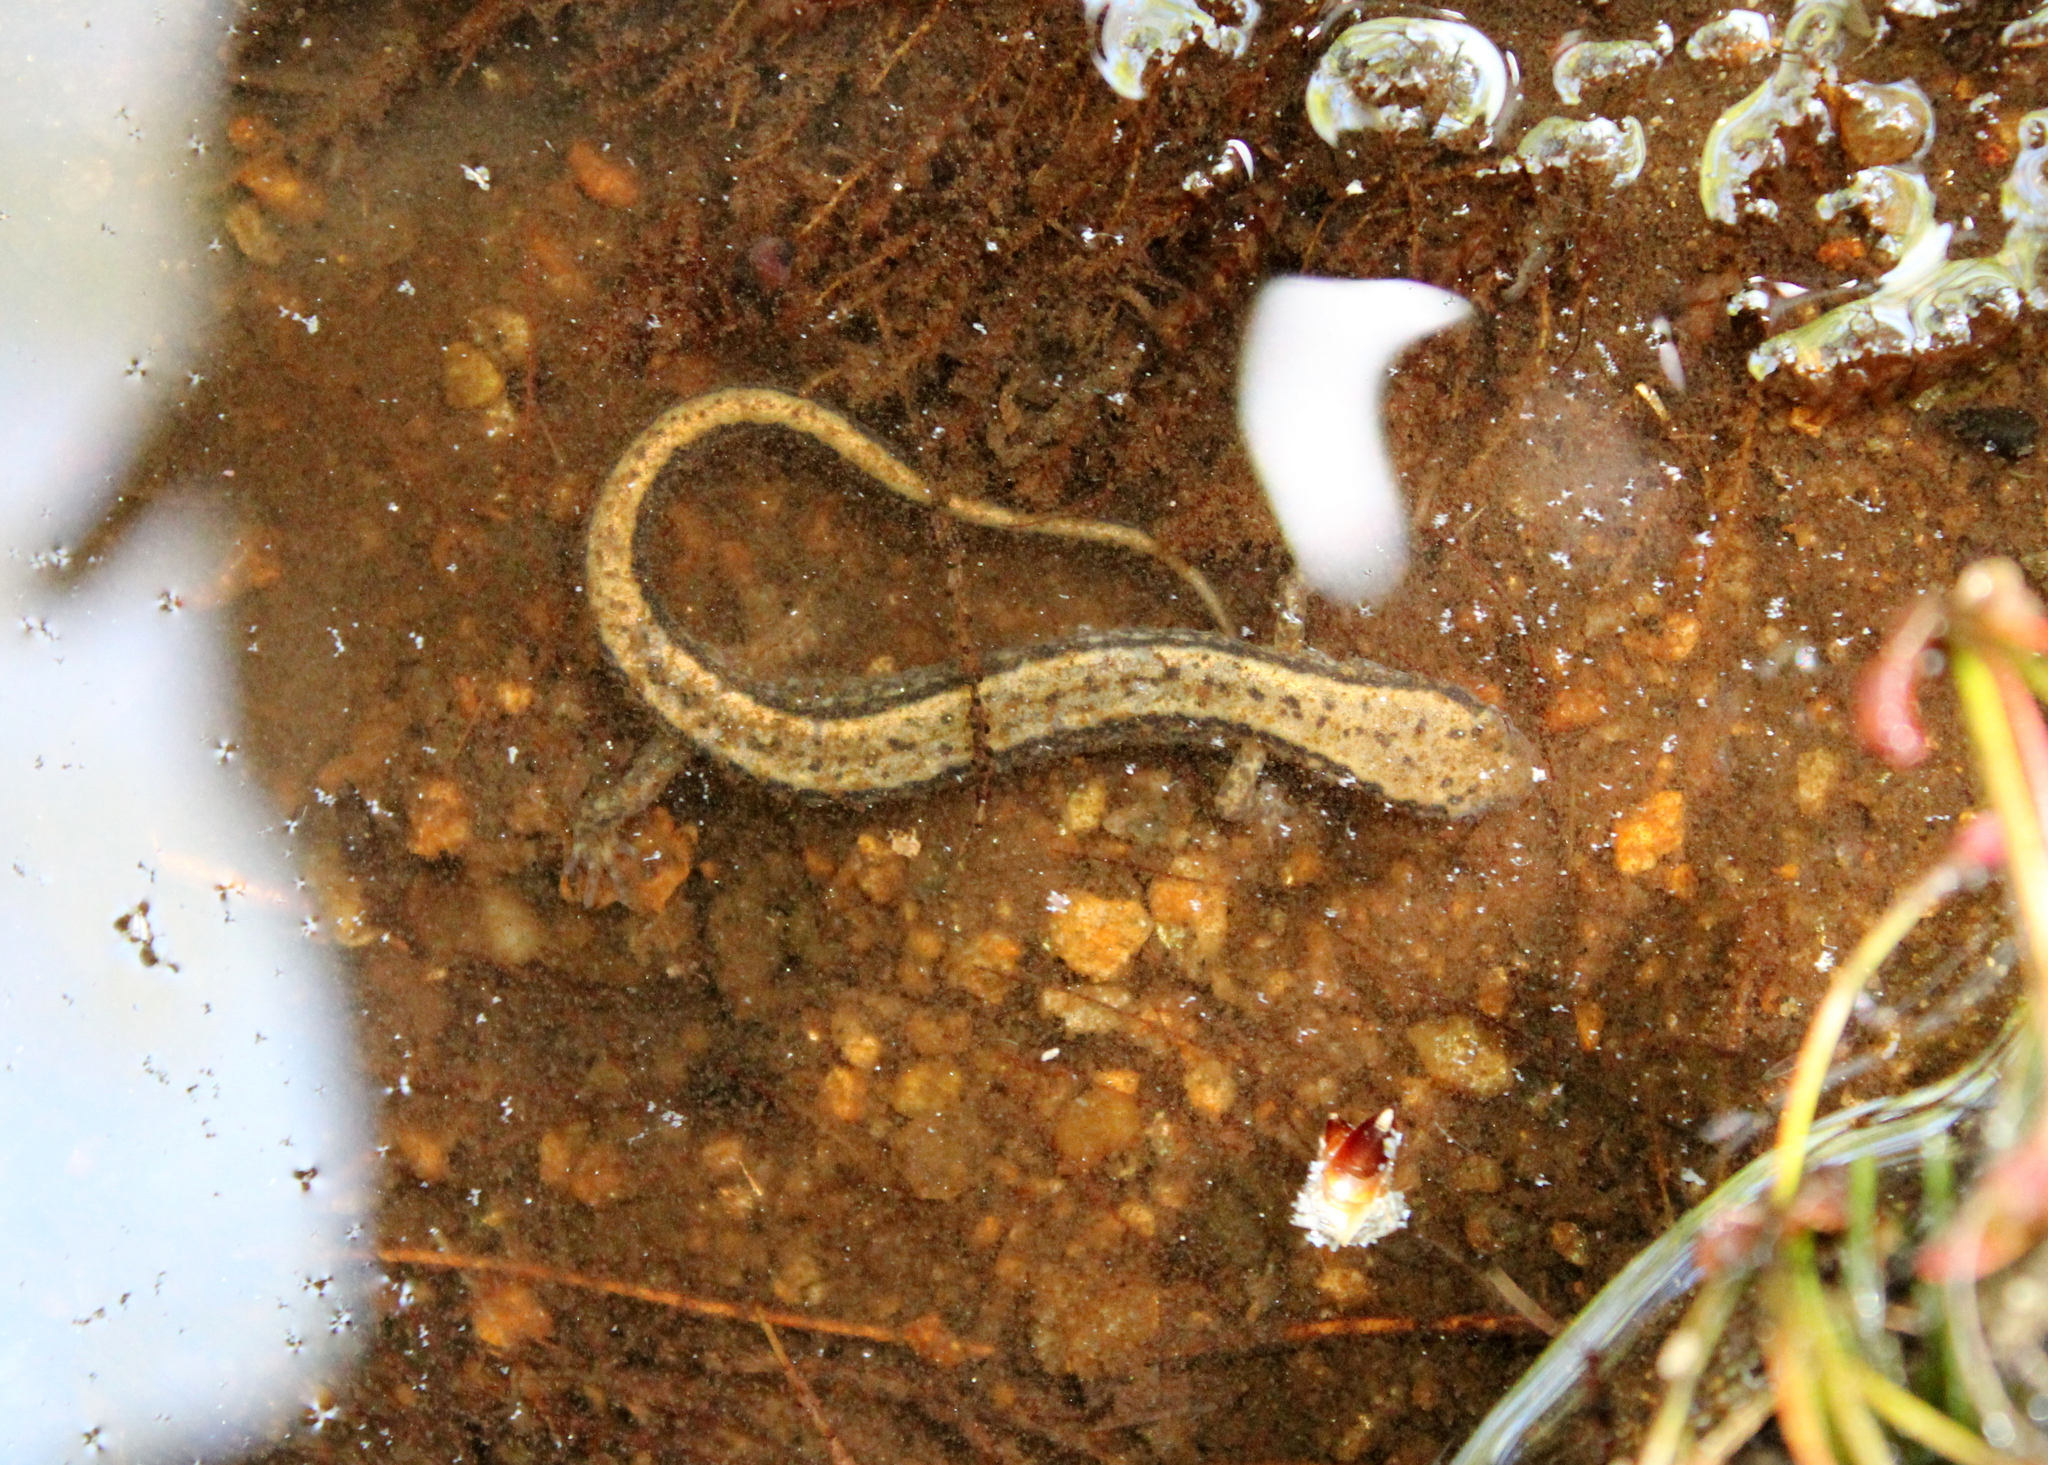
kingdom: Animalia
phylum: Chordata
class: Amphibia
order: Caudata
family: Plethodontidae
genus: Eurycea
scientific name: Eurycea bislineata
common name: Northern two-lined salamander
